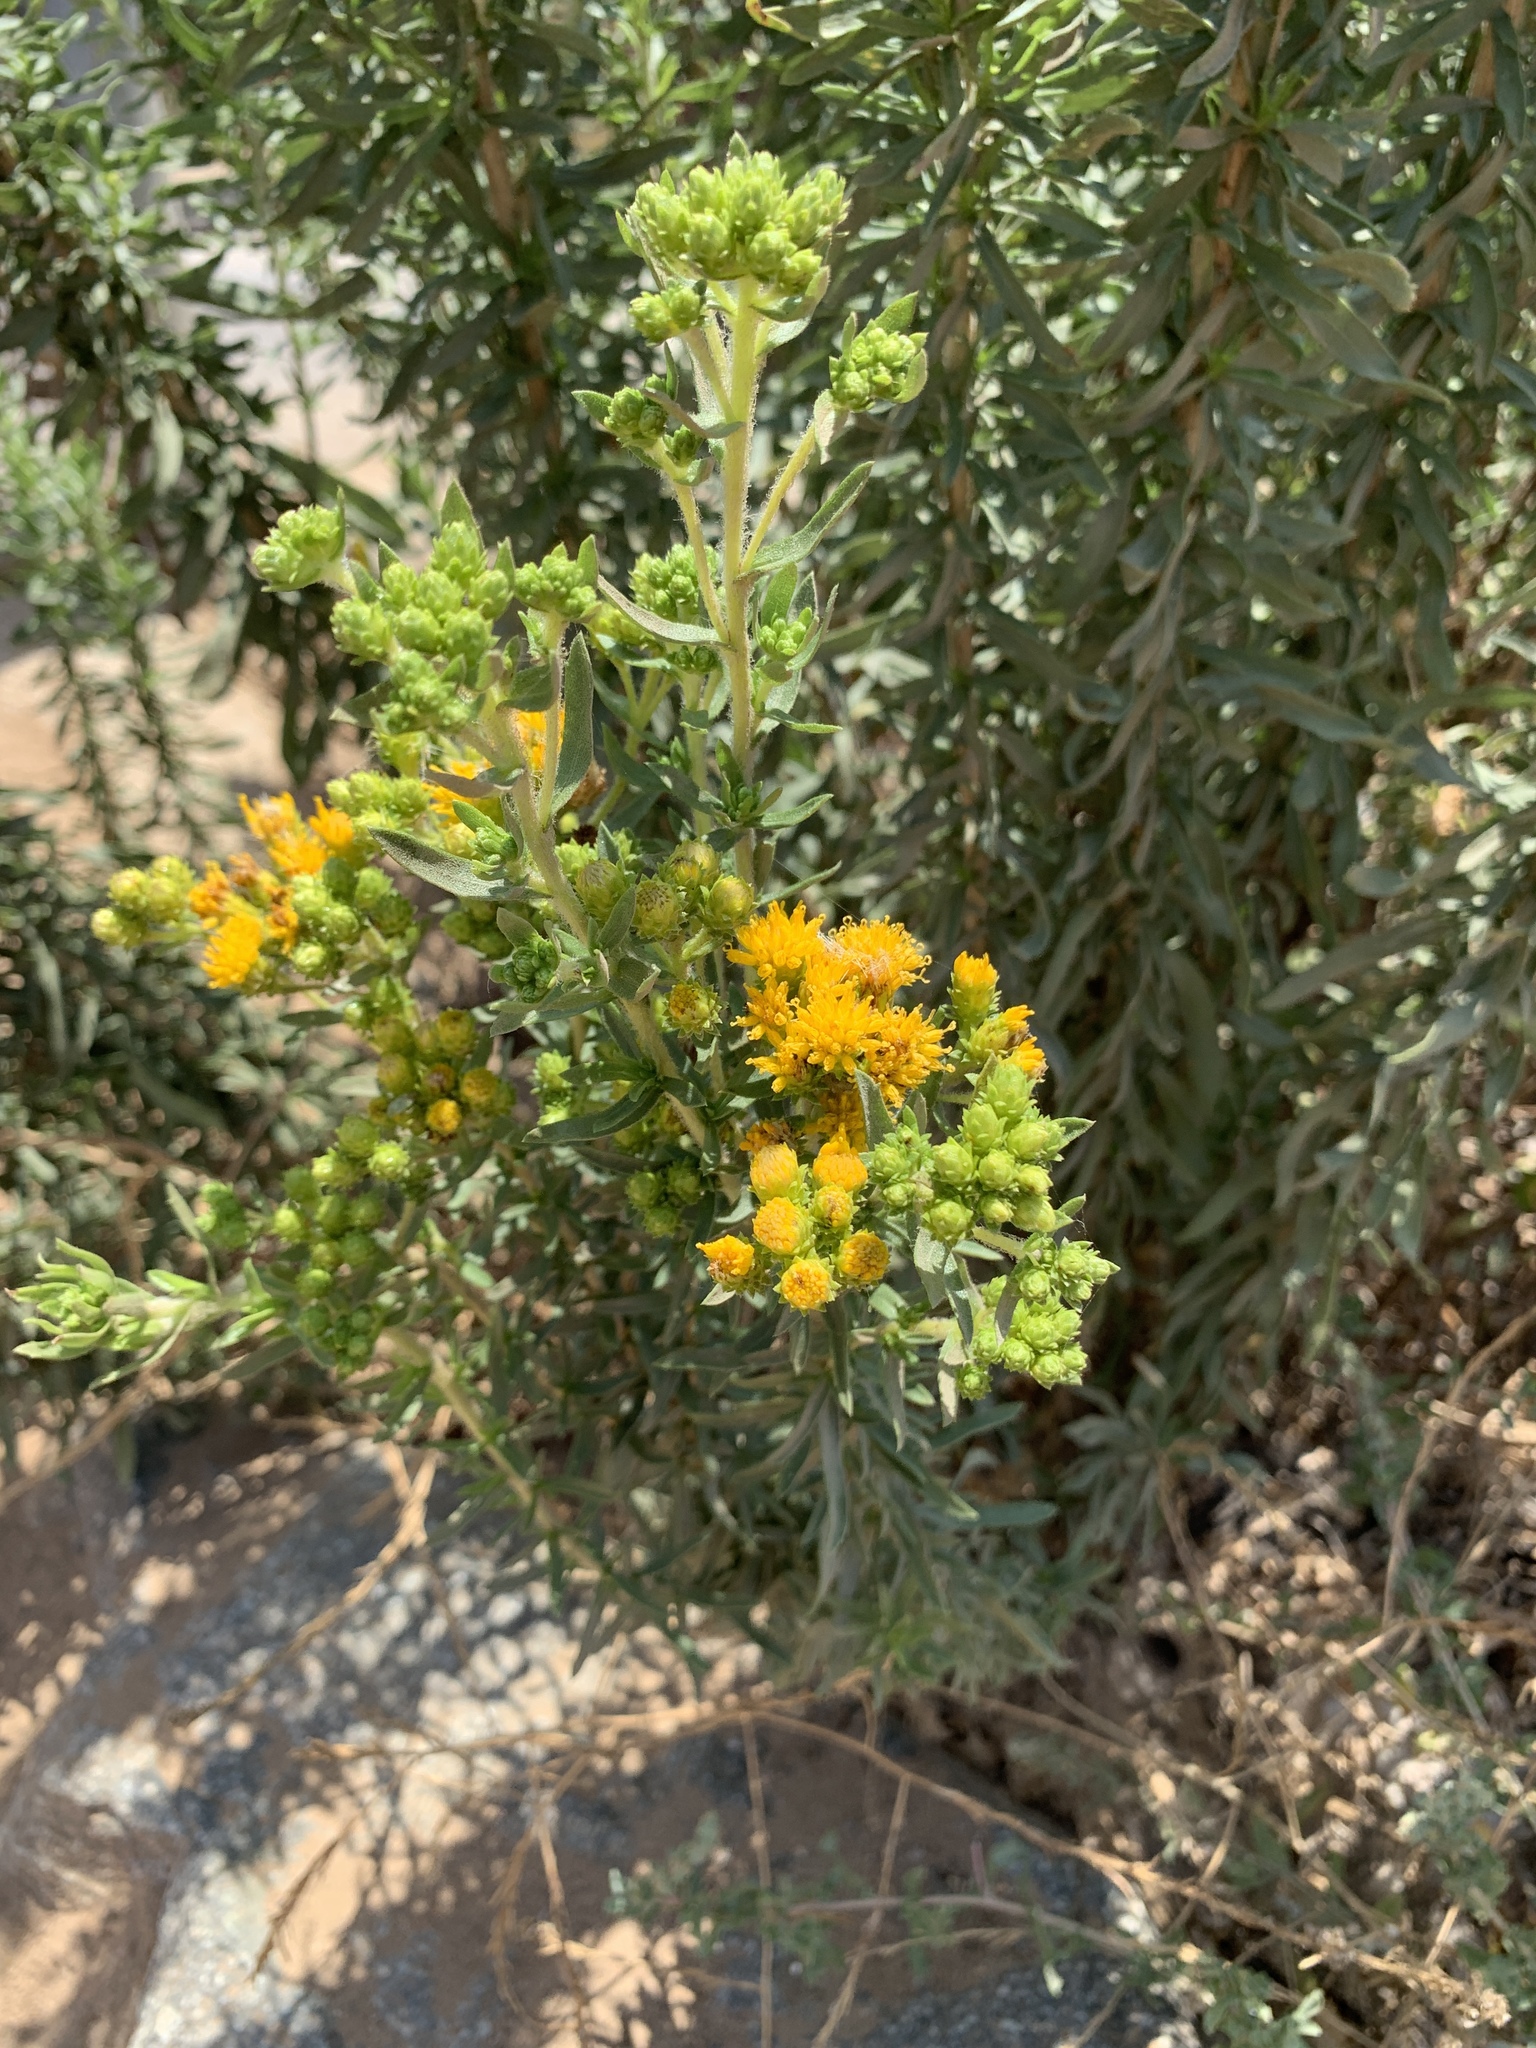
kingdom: Plantae
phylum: Tracheophyta
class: Magnoliopsida
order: Asterales
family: Asteraceae
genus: Isocoma
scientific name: Isocoma menziesii
